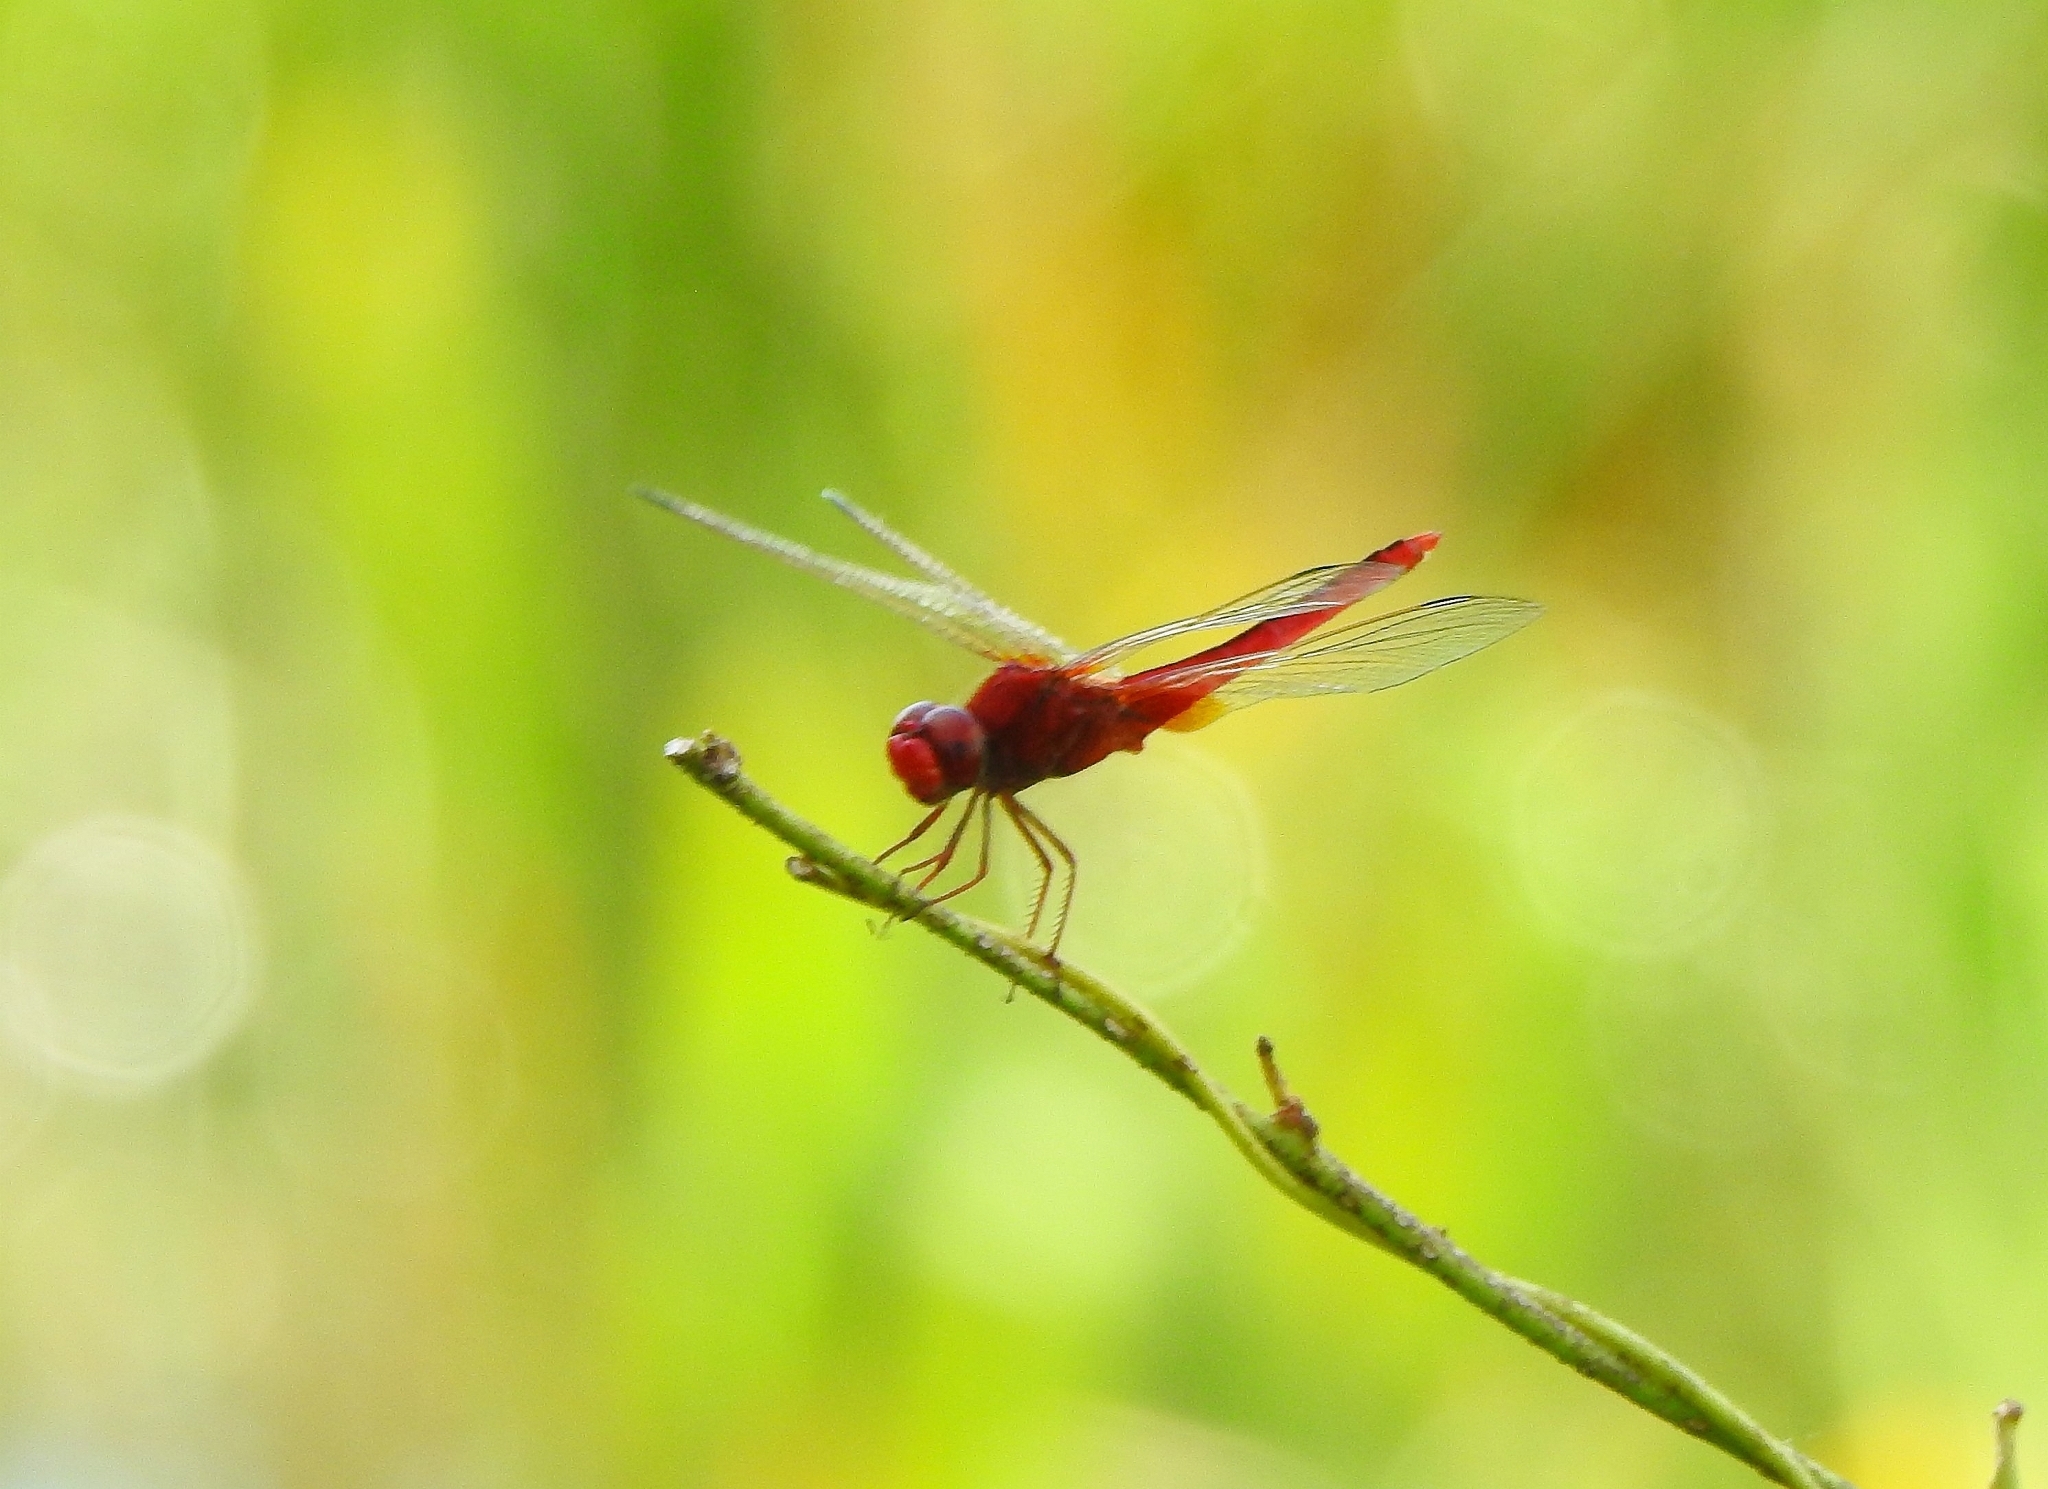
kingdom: Animalia
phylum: Arthropoda
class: Insecta
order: Odonata
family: Libellulidae
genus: Crocothemis
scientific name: Crocothemis servilia
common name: Scarlet skimmer
